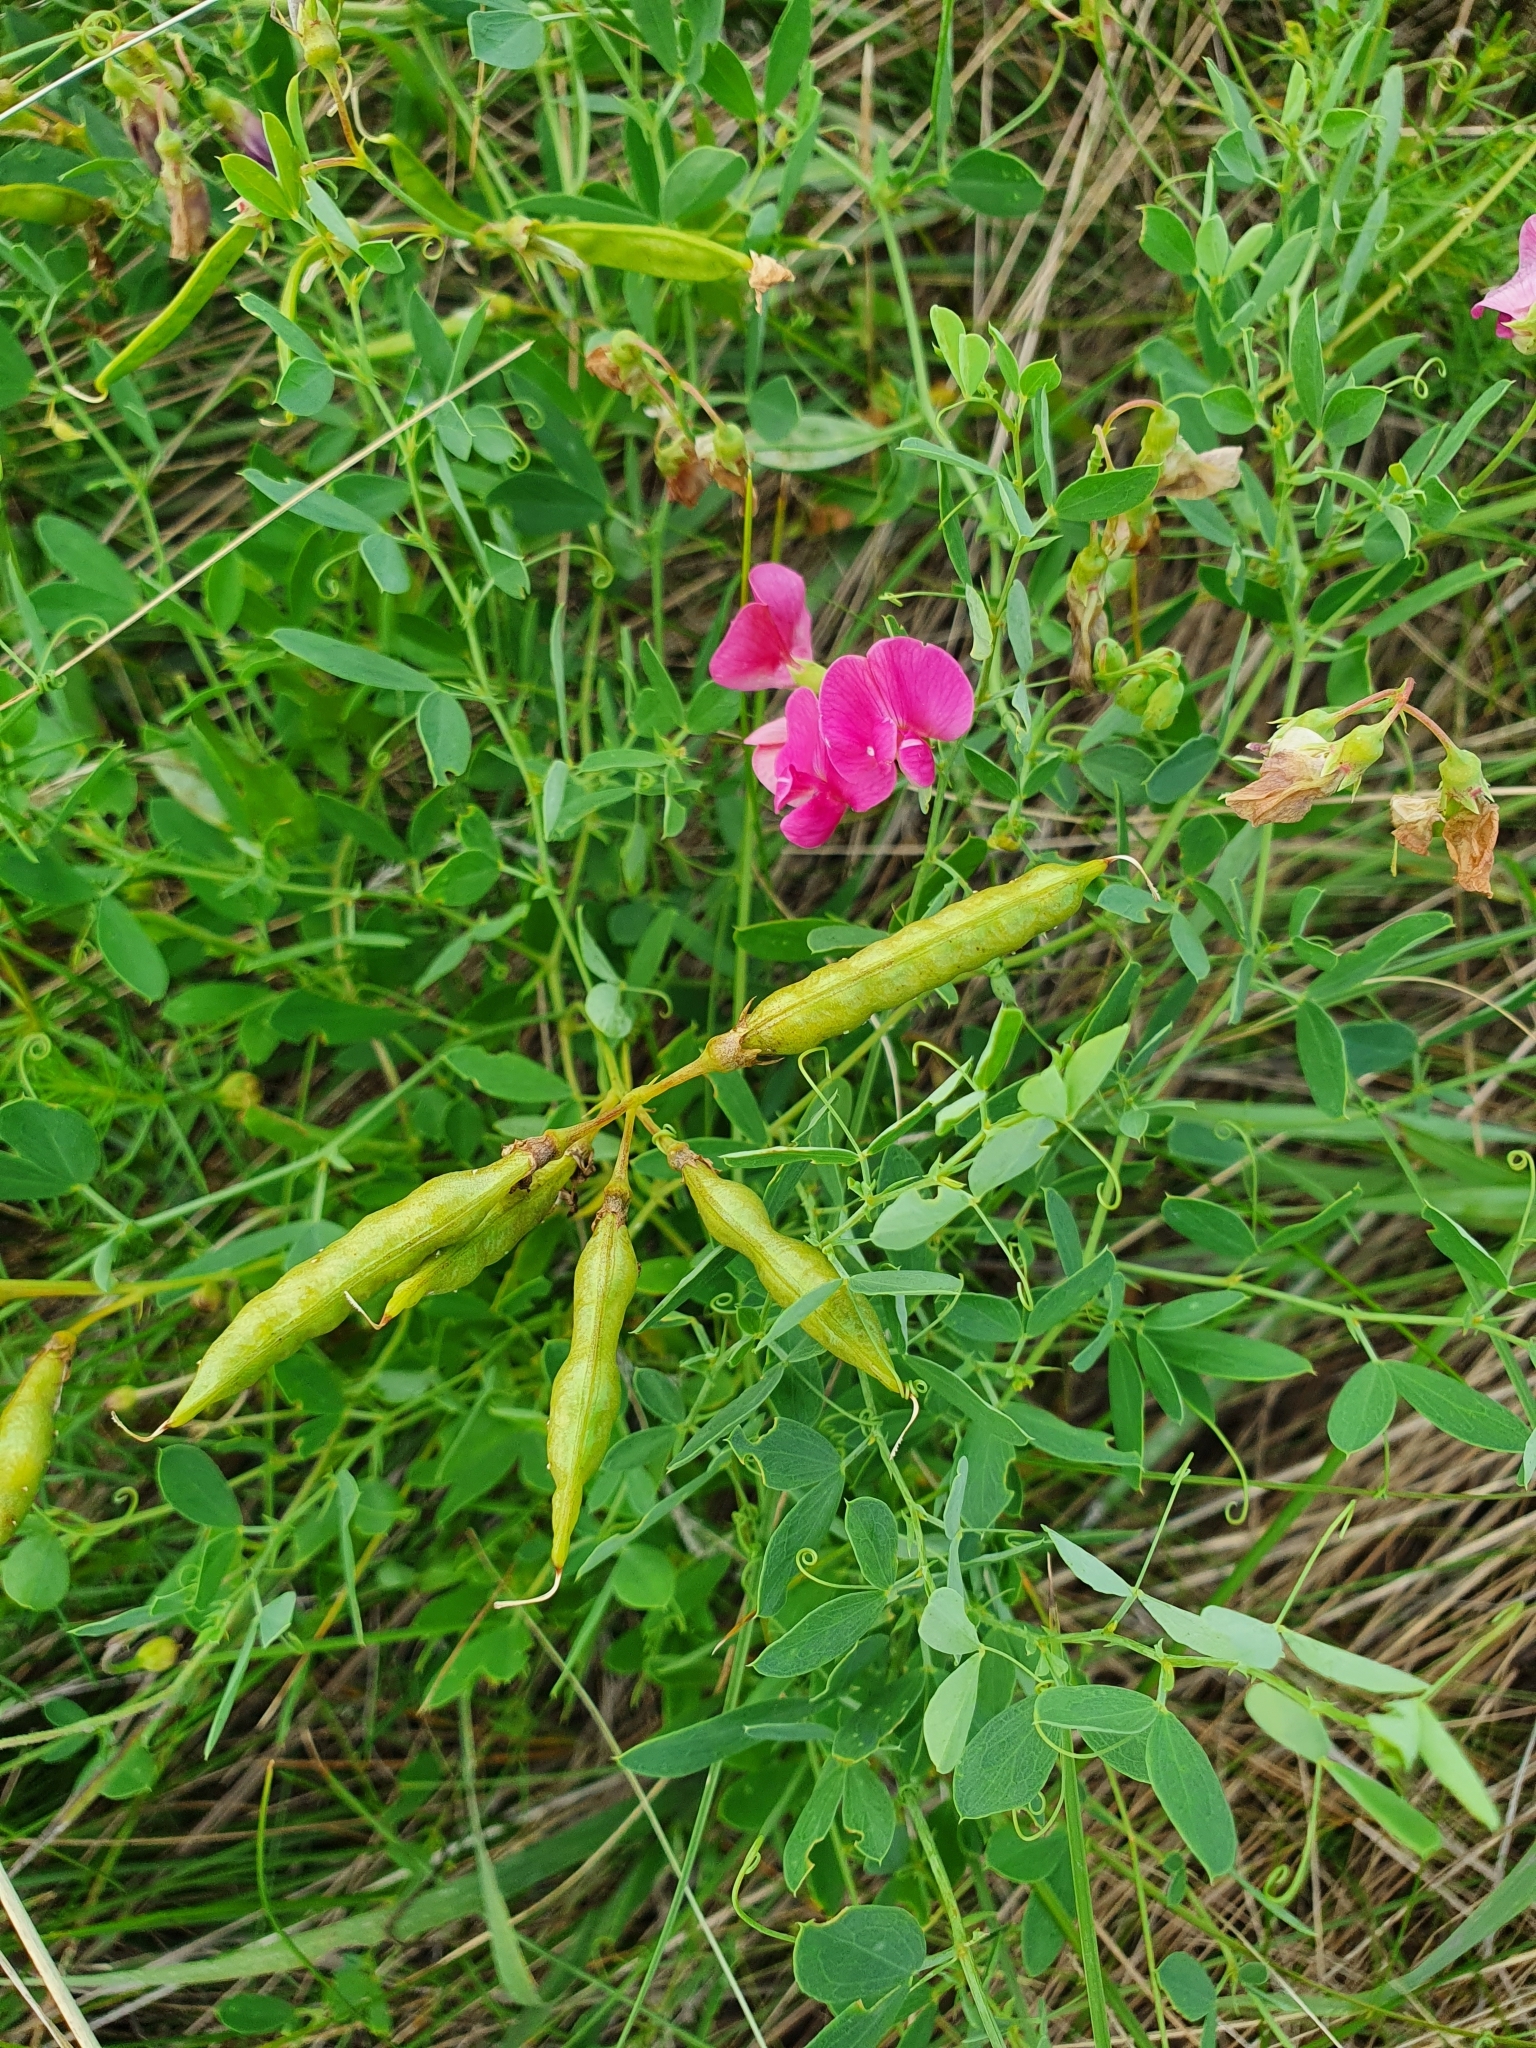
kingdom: Plantae
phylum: Tracheophyta
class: Magnoliopsida
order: Fabales
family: Fabaceae
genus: Lathyrus
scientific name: Lathyrus tuberosus
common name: Tuberous pea
